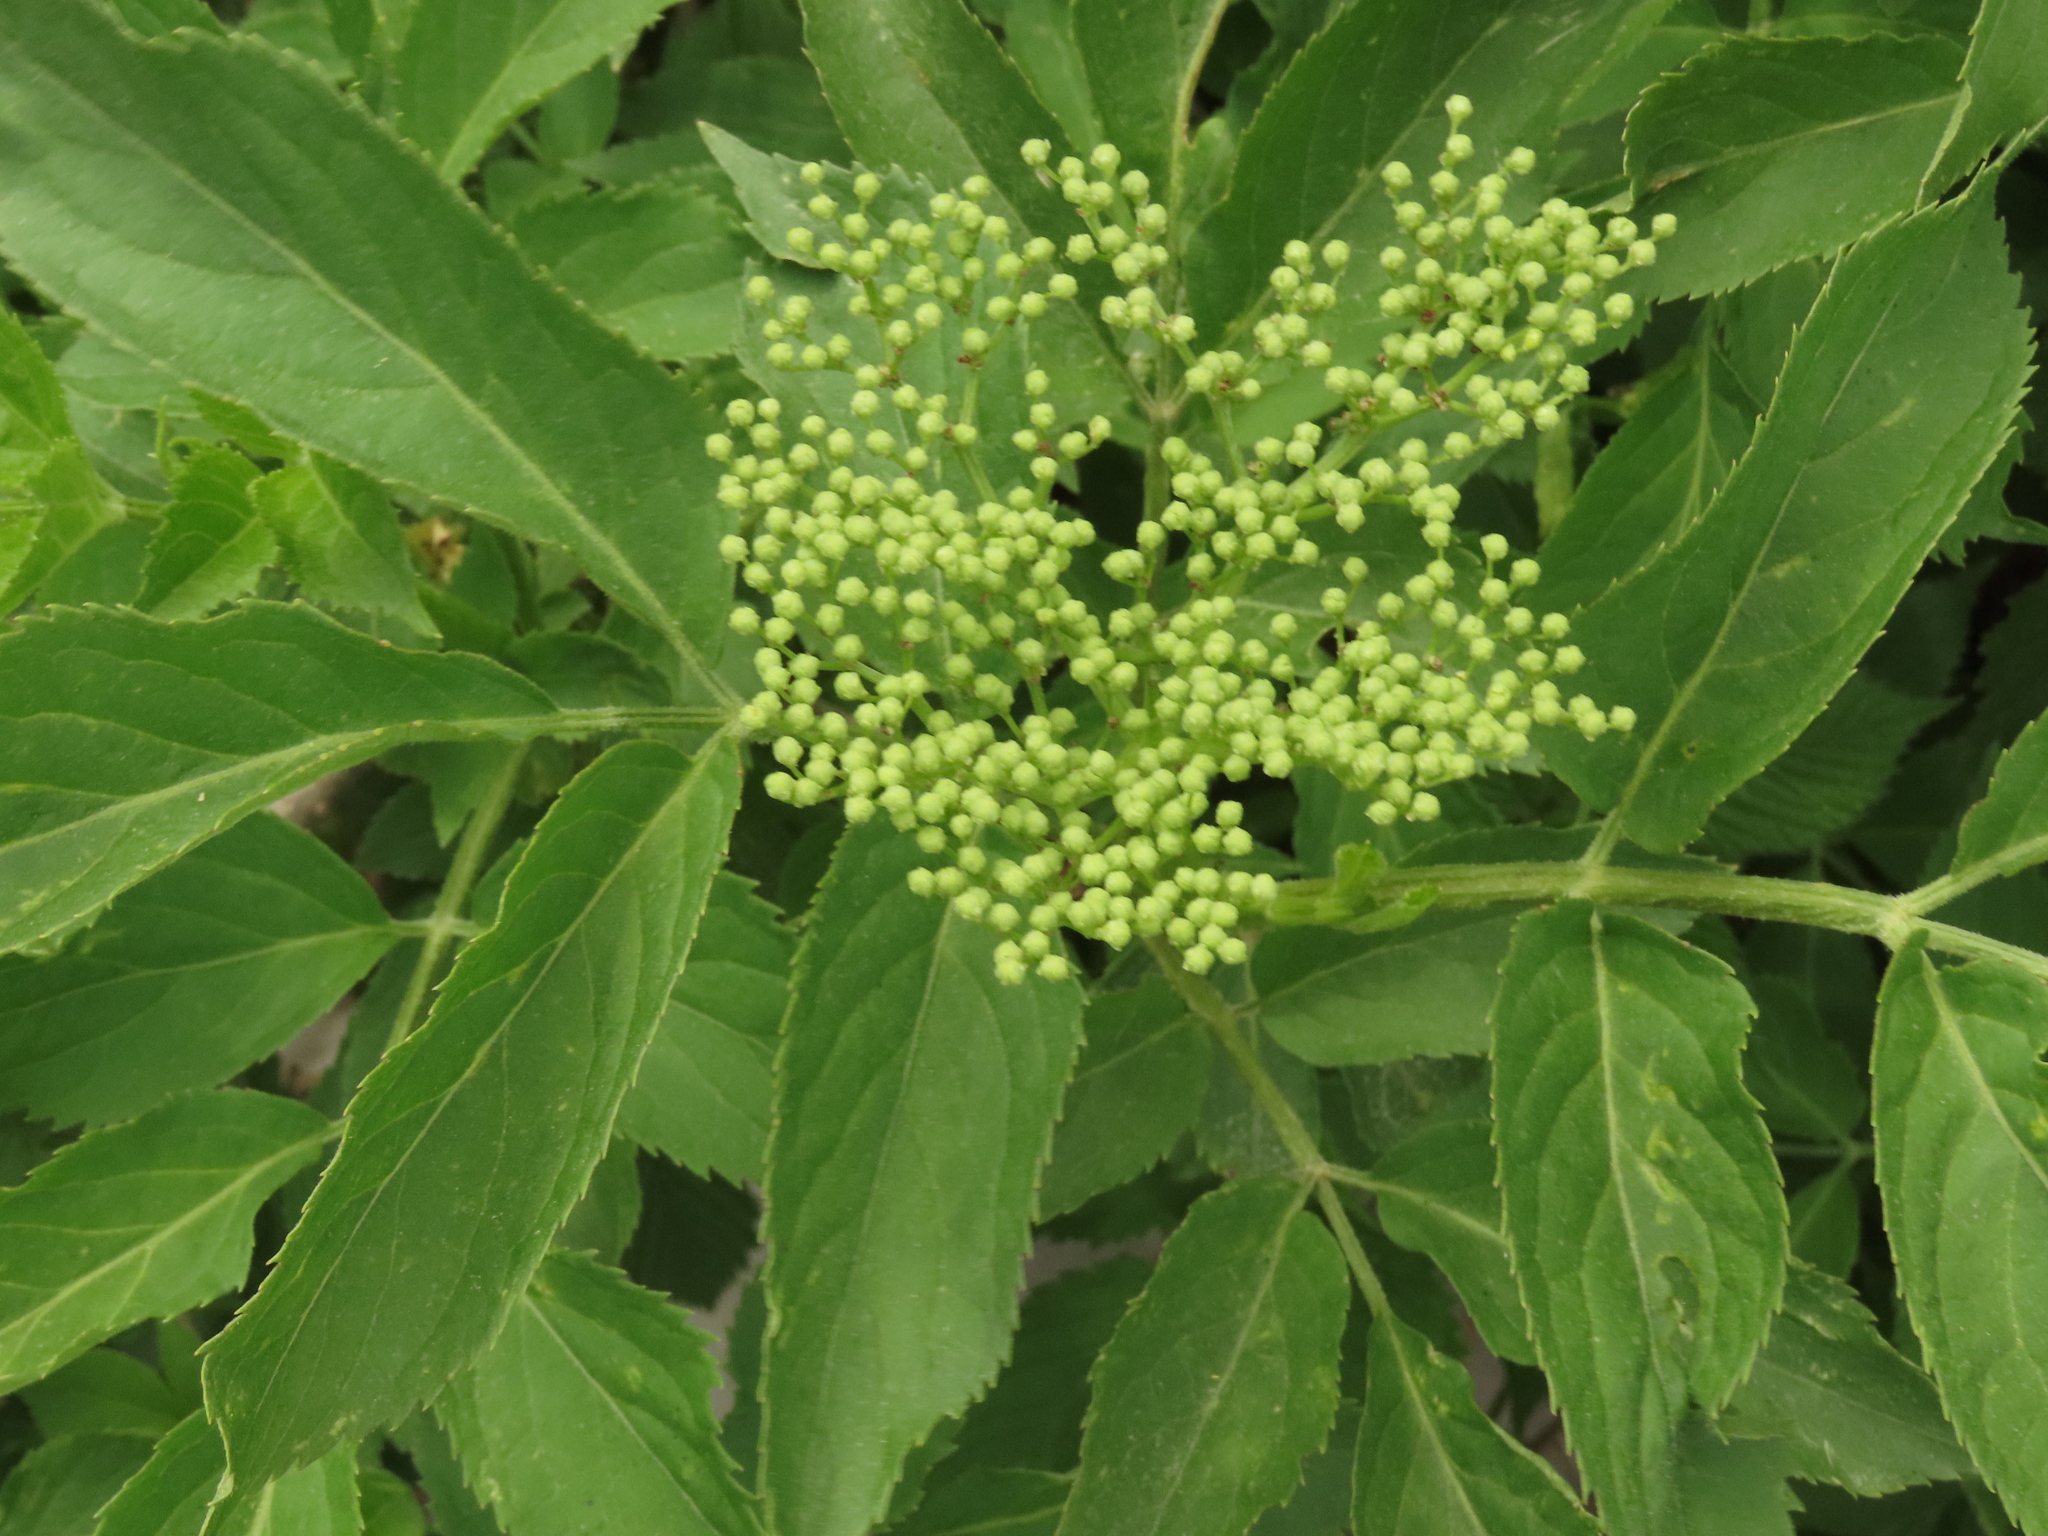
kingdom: Plantae
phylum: Tracheophyta
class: Magnoliopsida
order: Dipsacales
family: Viburnaceae
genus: Sambucus
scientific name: Sambucus nigra
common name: Elder
